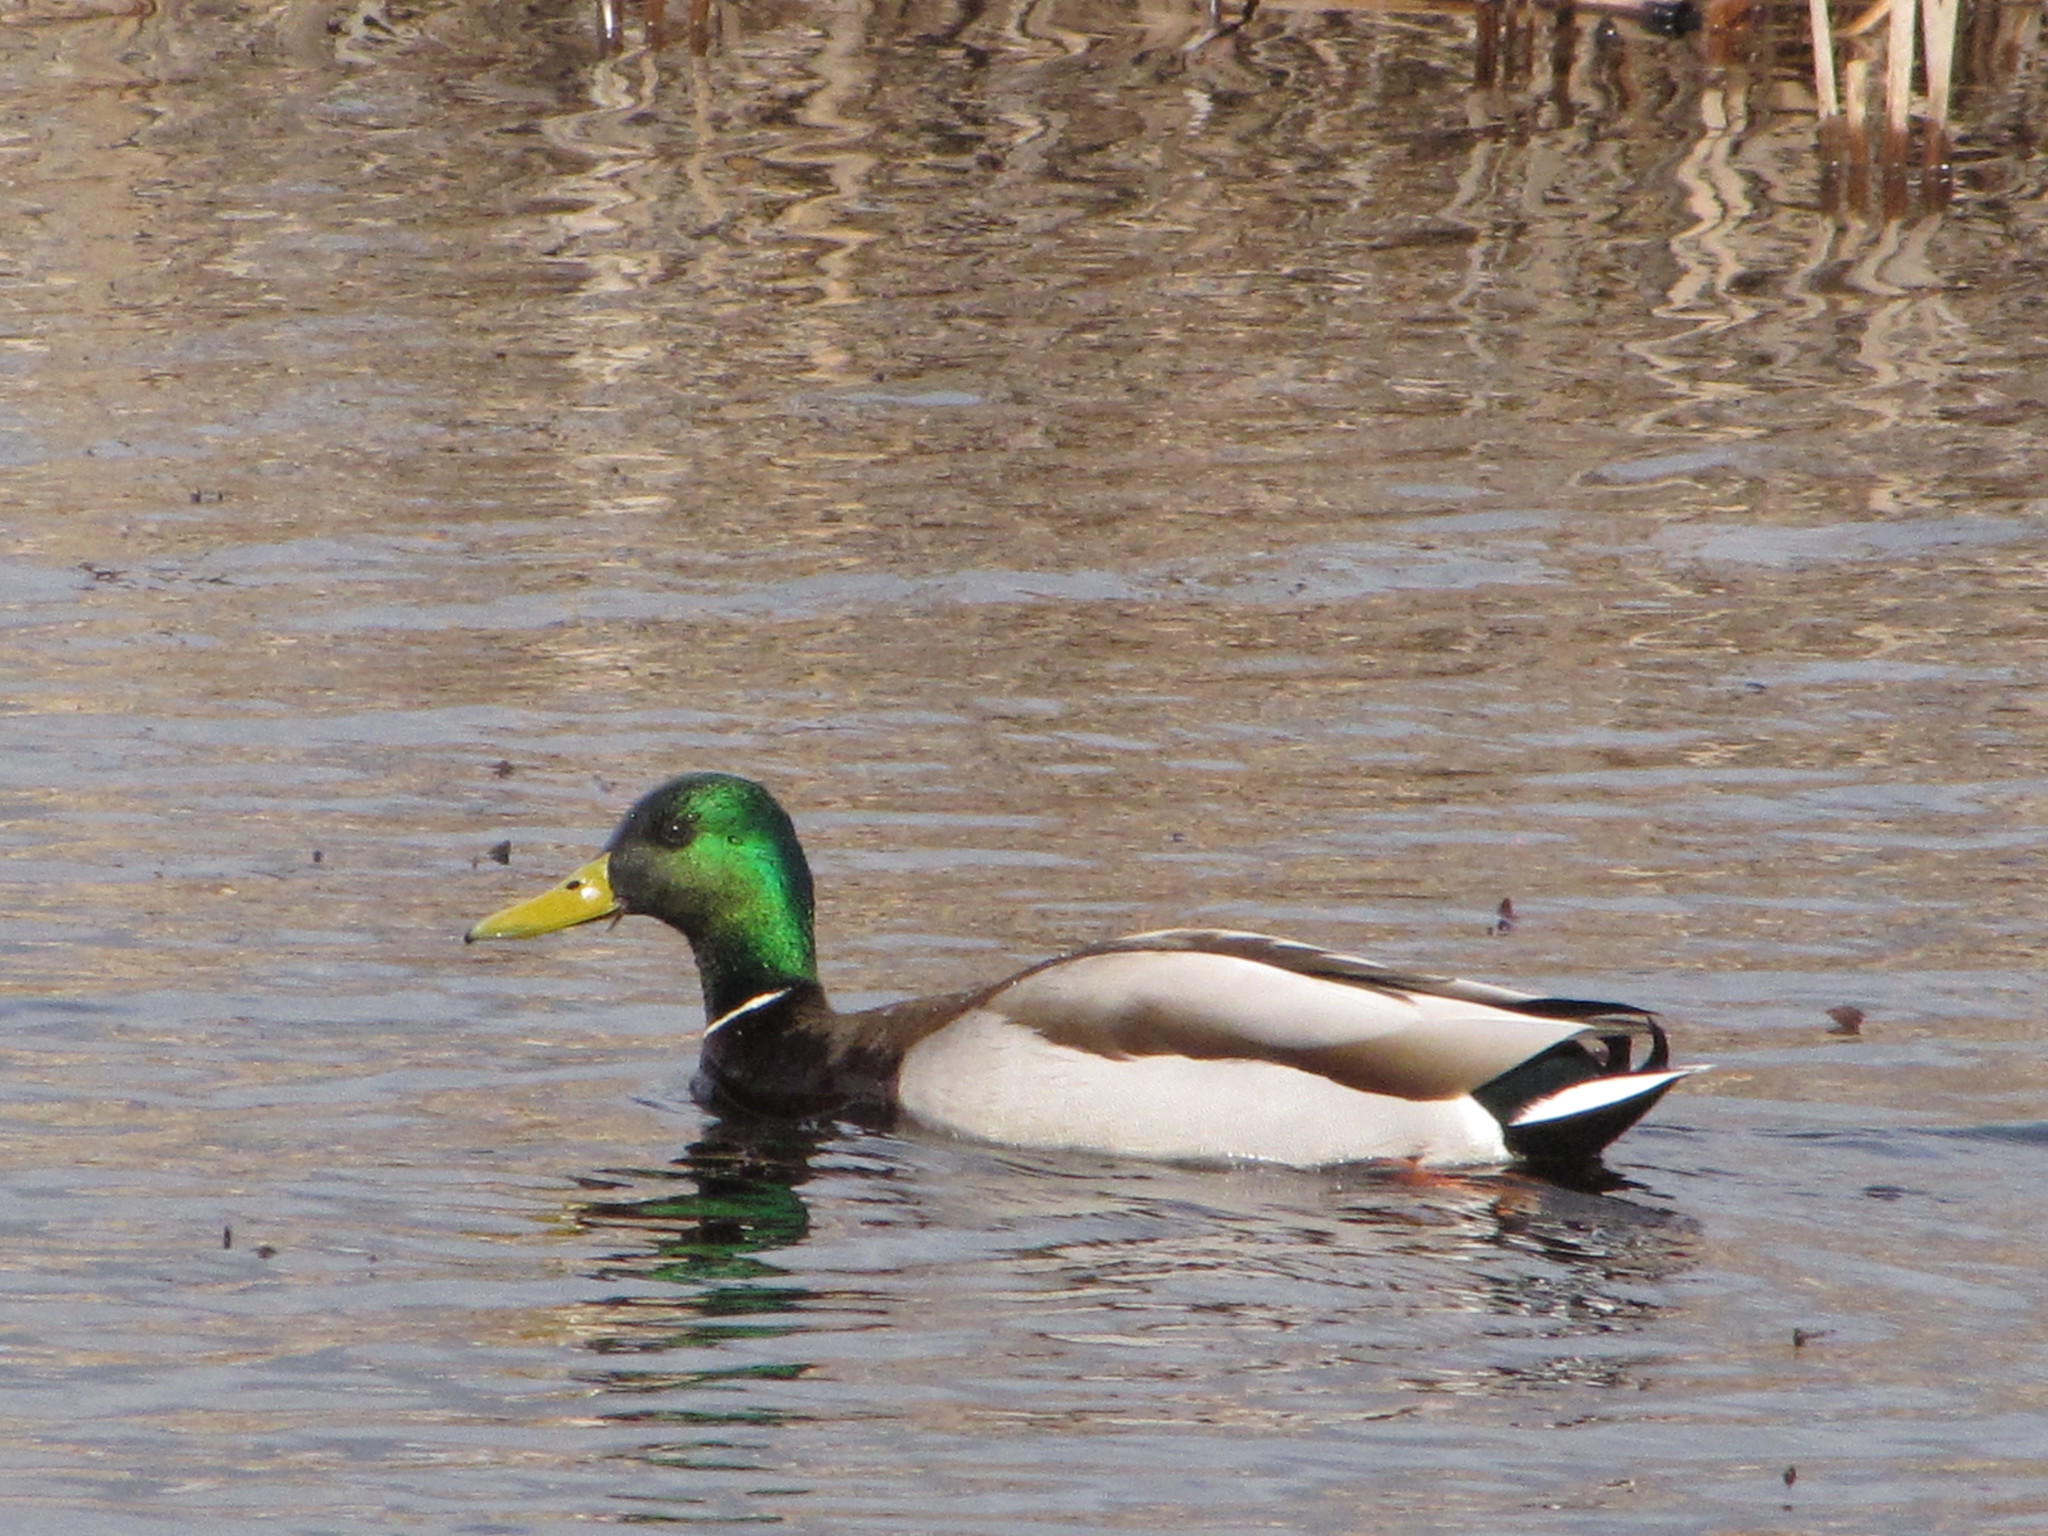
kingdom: Animalia
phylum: Chordata
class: Aves
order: Anseriformes
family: Anatidae
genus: Anas
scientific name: Anas platyrhynchos
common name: Mallard
